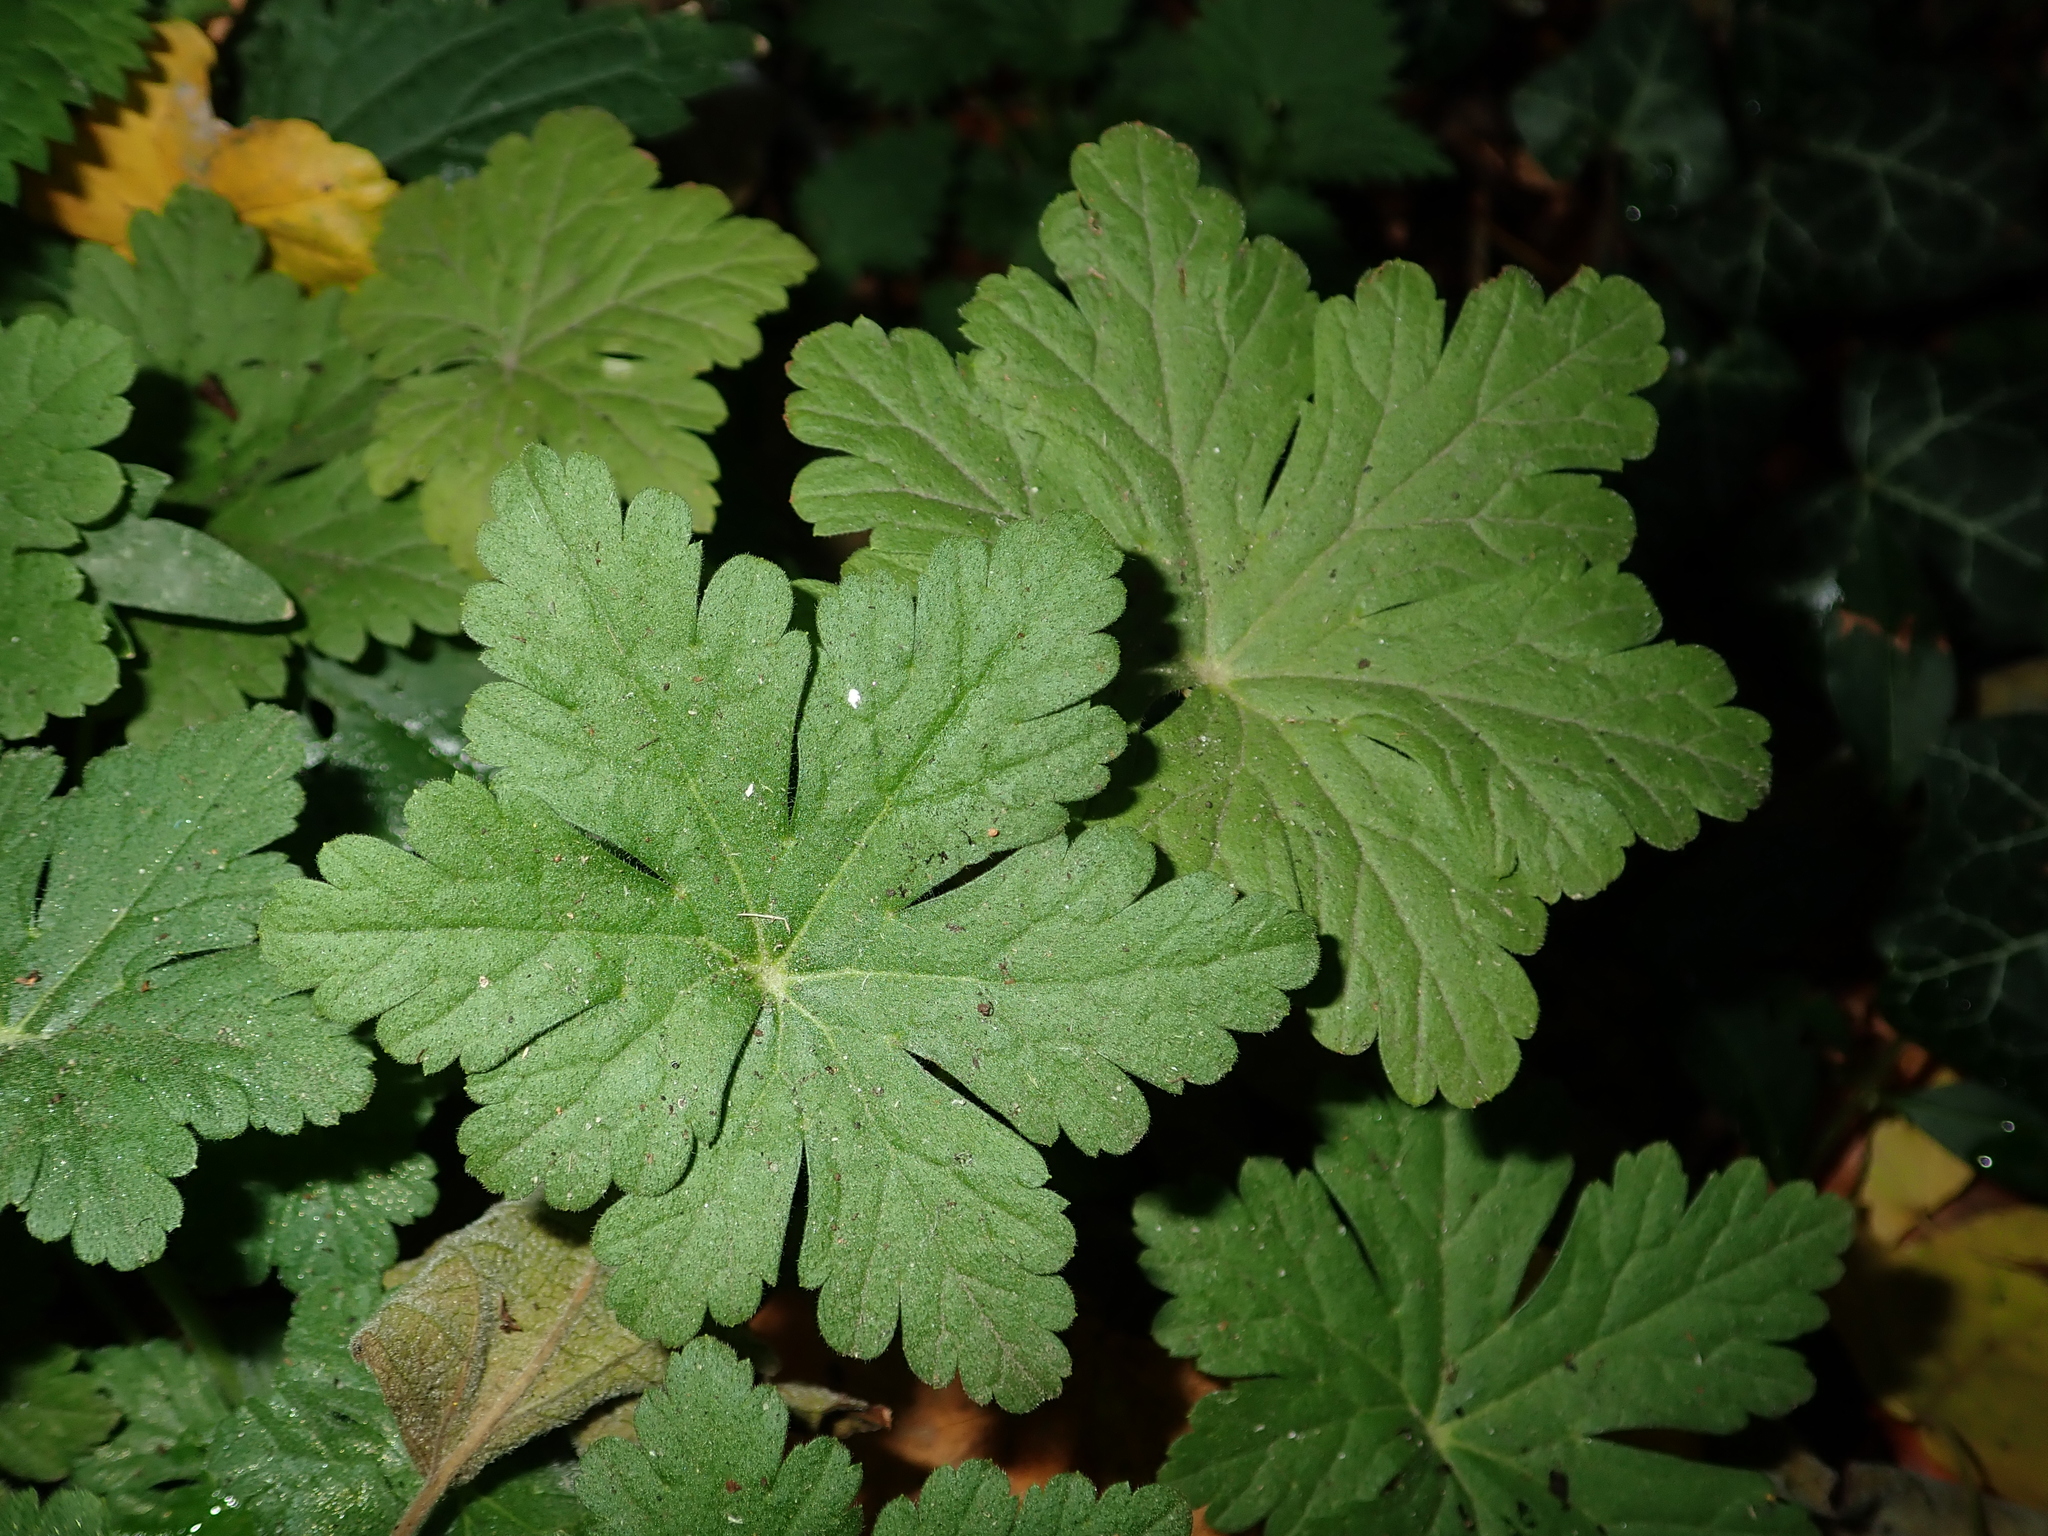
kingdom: Plantae
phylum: Tracheophyta
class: Magnoliopsida
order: Geraniales
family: Geraniaceae
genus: Geranium
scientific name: Geranium macrorrhizum
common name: Rock crane's-bill
